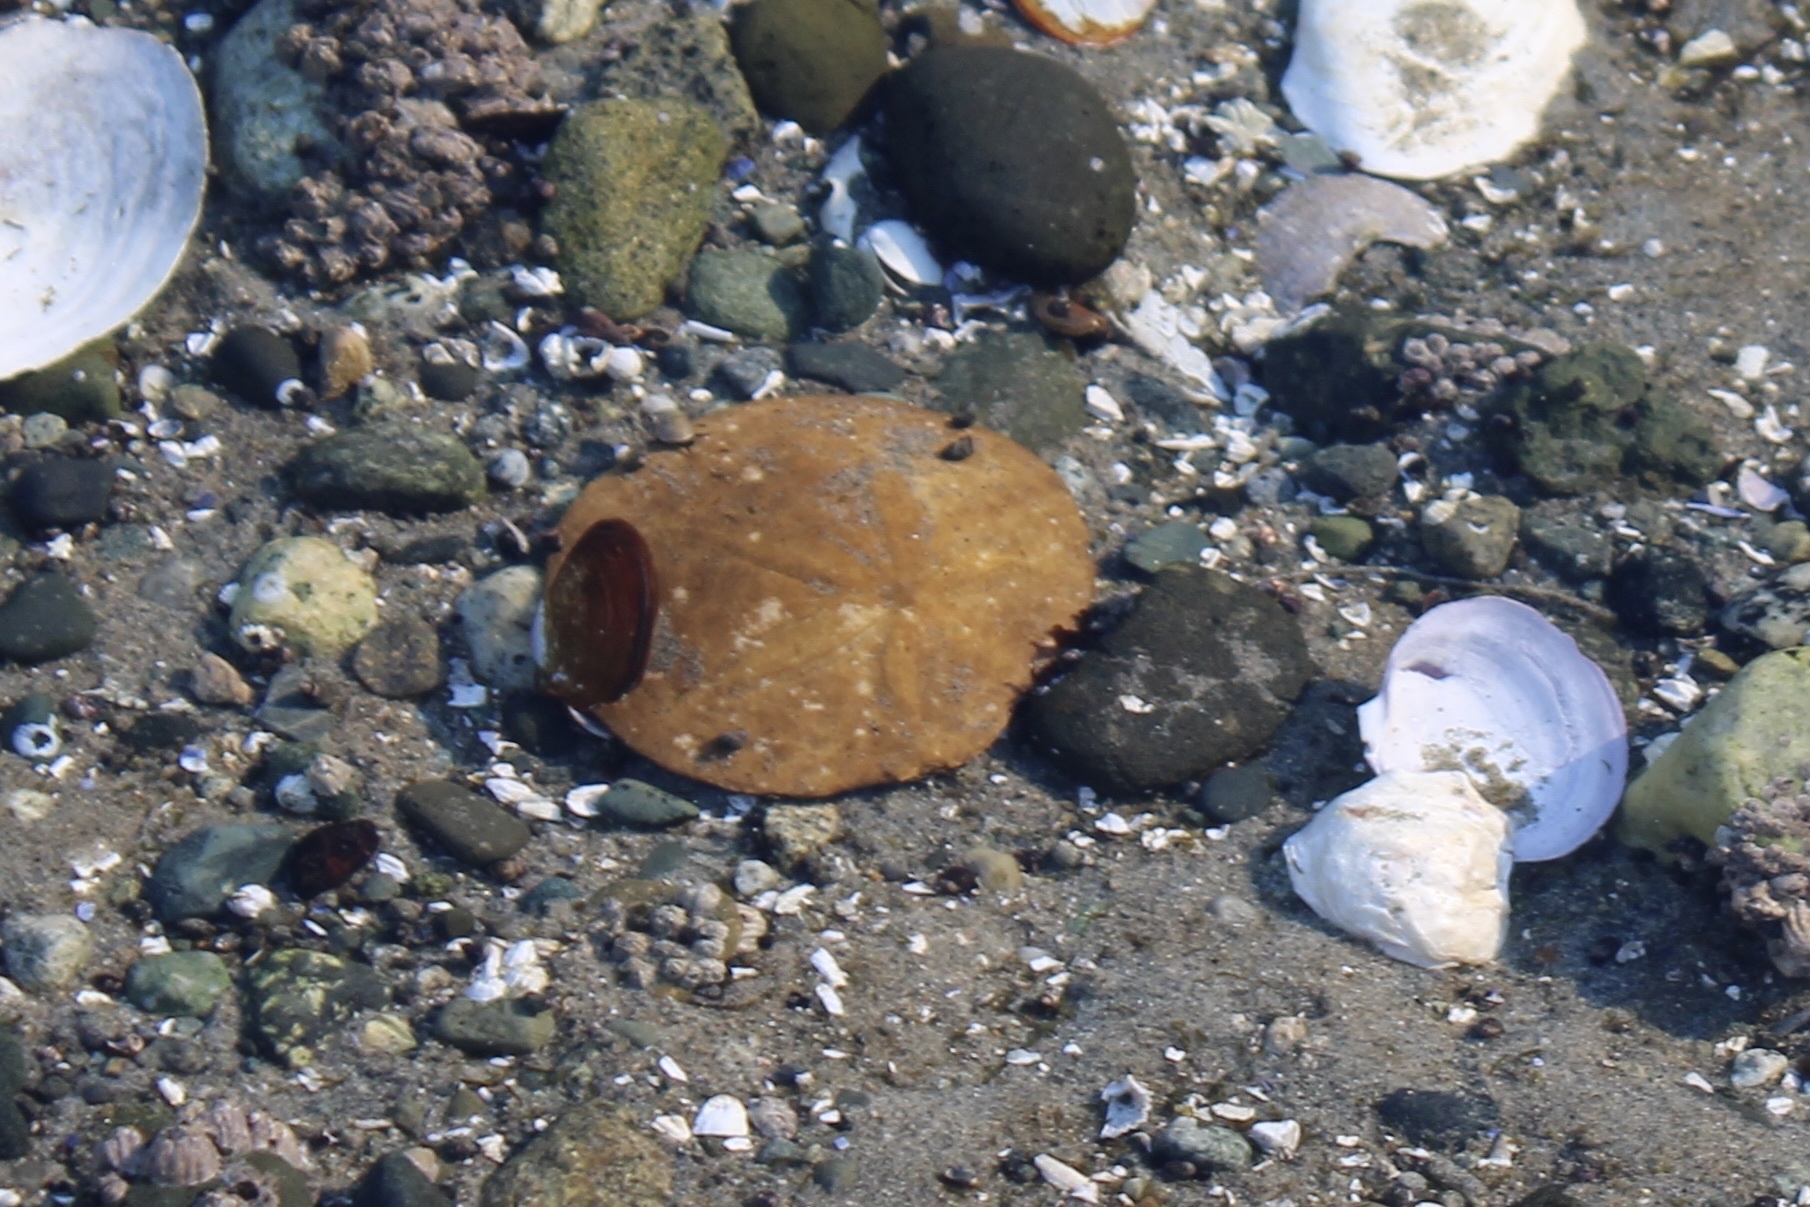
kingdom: Animalia
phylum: Echinodermata
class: Echinoidea
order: Echinolampadacea
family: Dendrasteridae
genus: Dendraster
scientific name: Dendraster excentricus
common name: Eccentric sand dollar sea urchin
